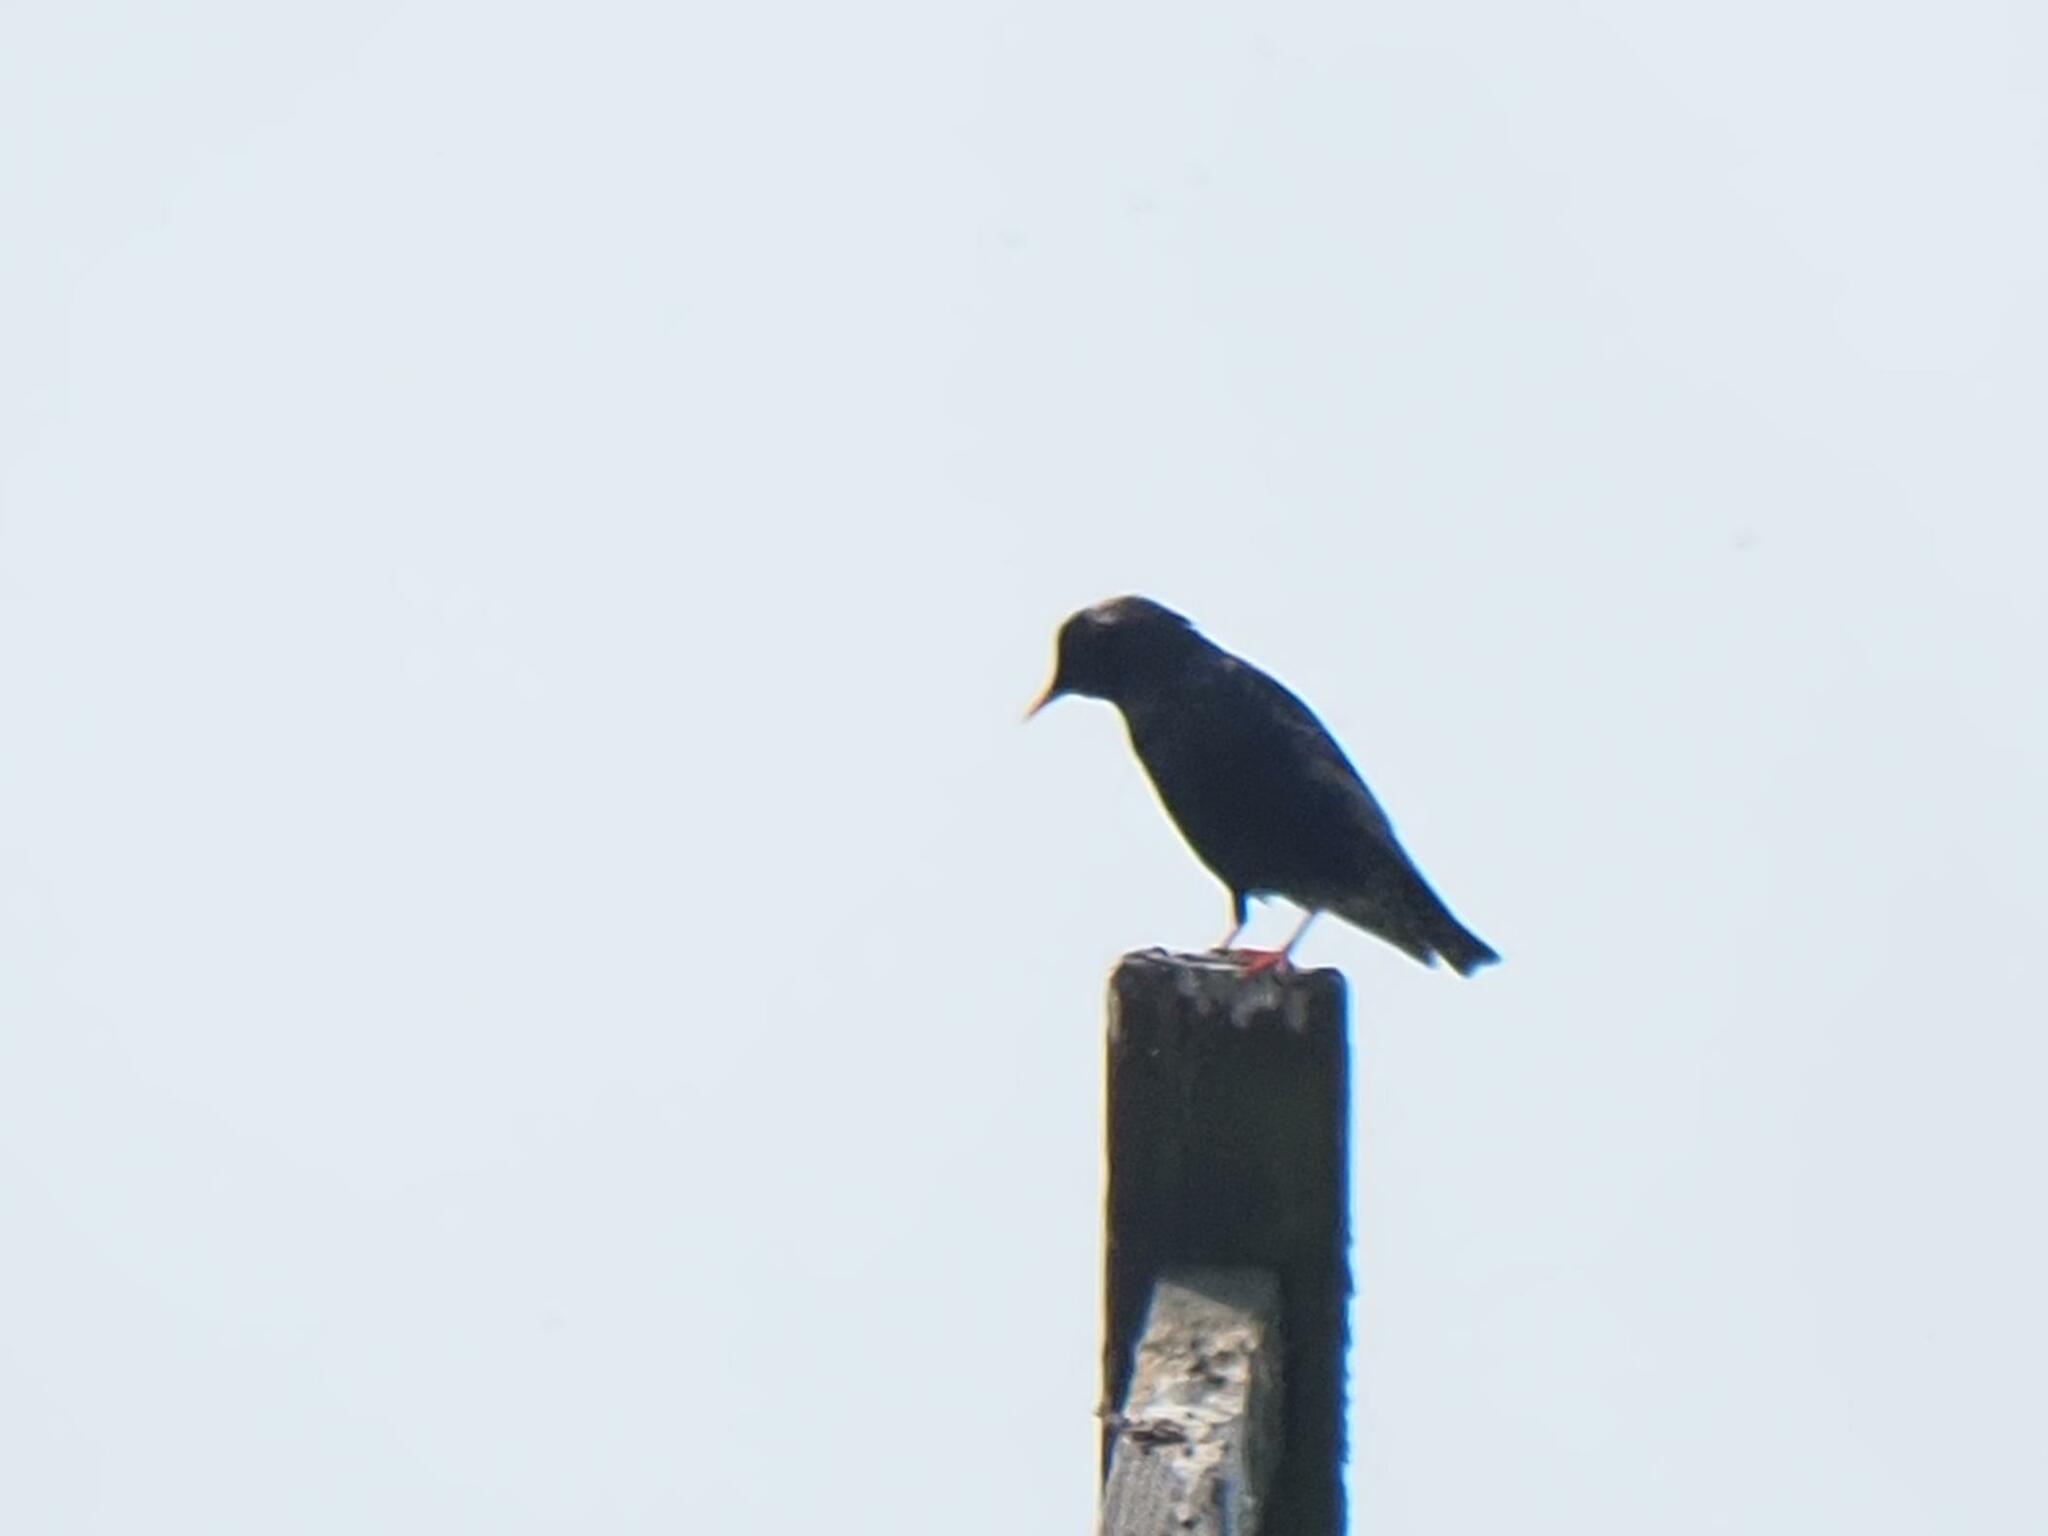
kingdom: Animalia
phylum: Chordata
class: Aves
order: Passeriformes
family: Sturnidae
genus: Sturnus
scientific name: Sturnus vulgaris
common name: Common starling
